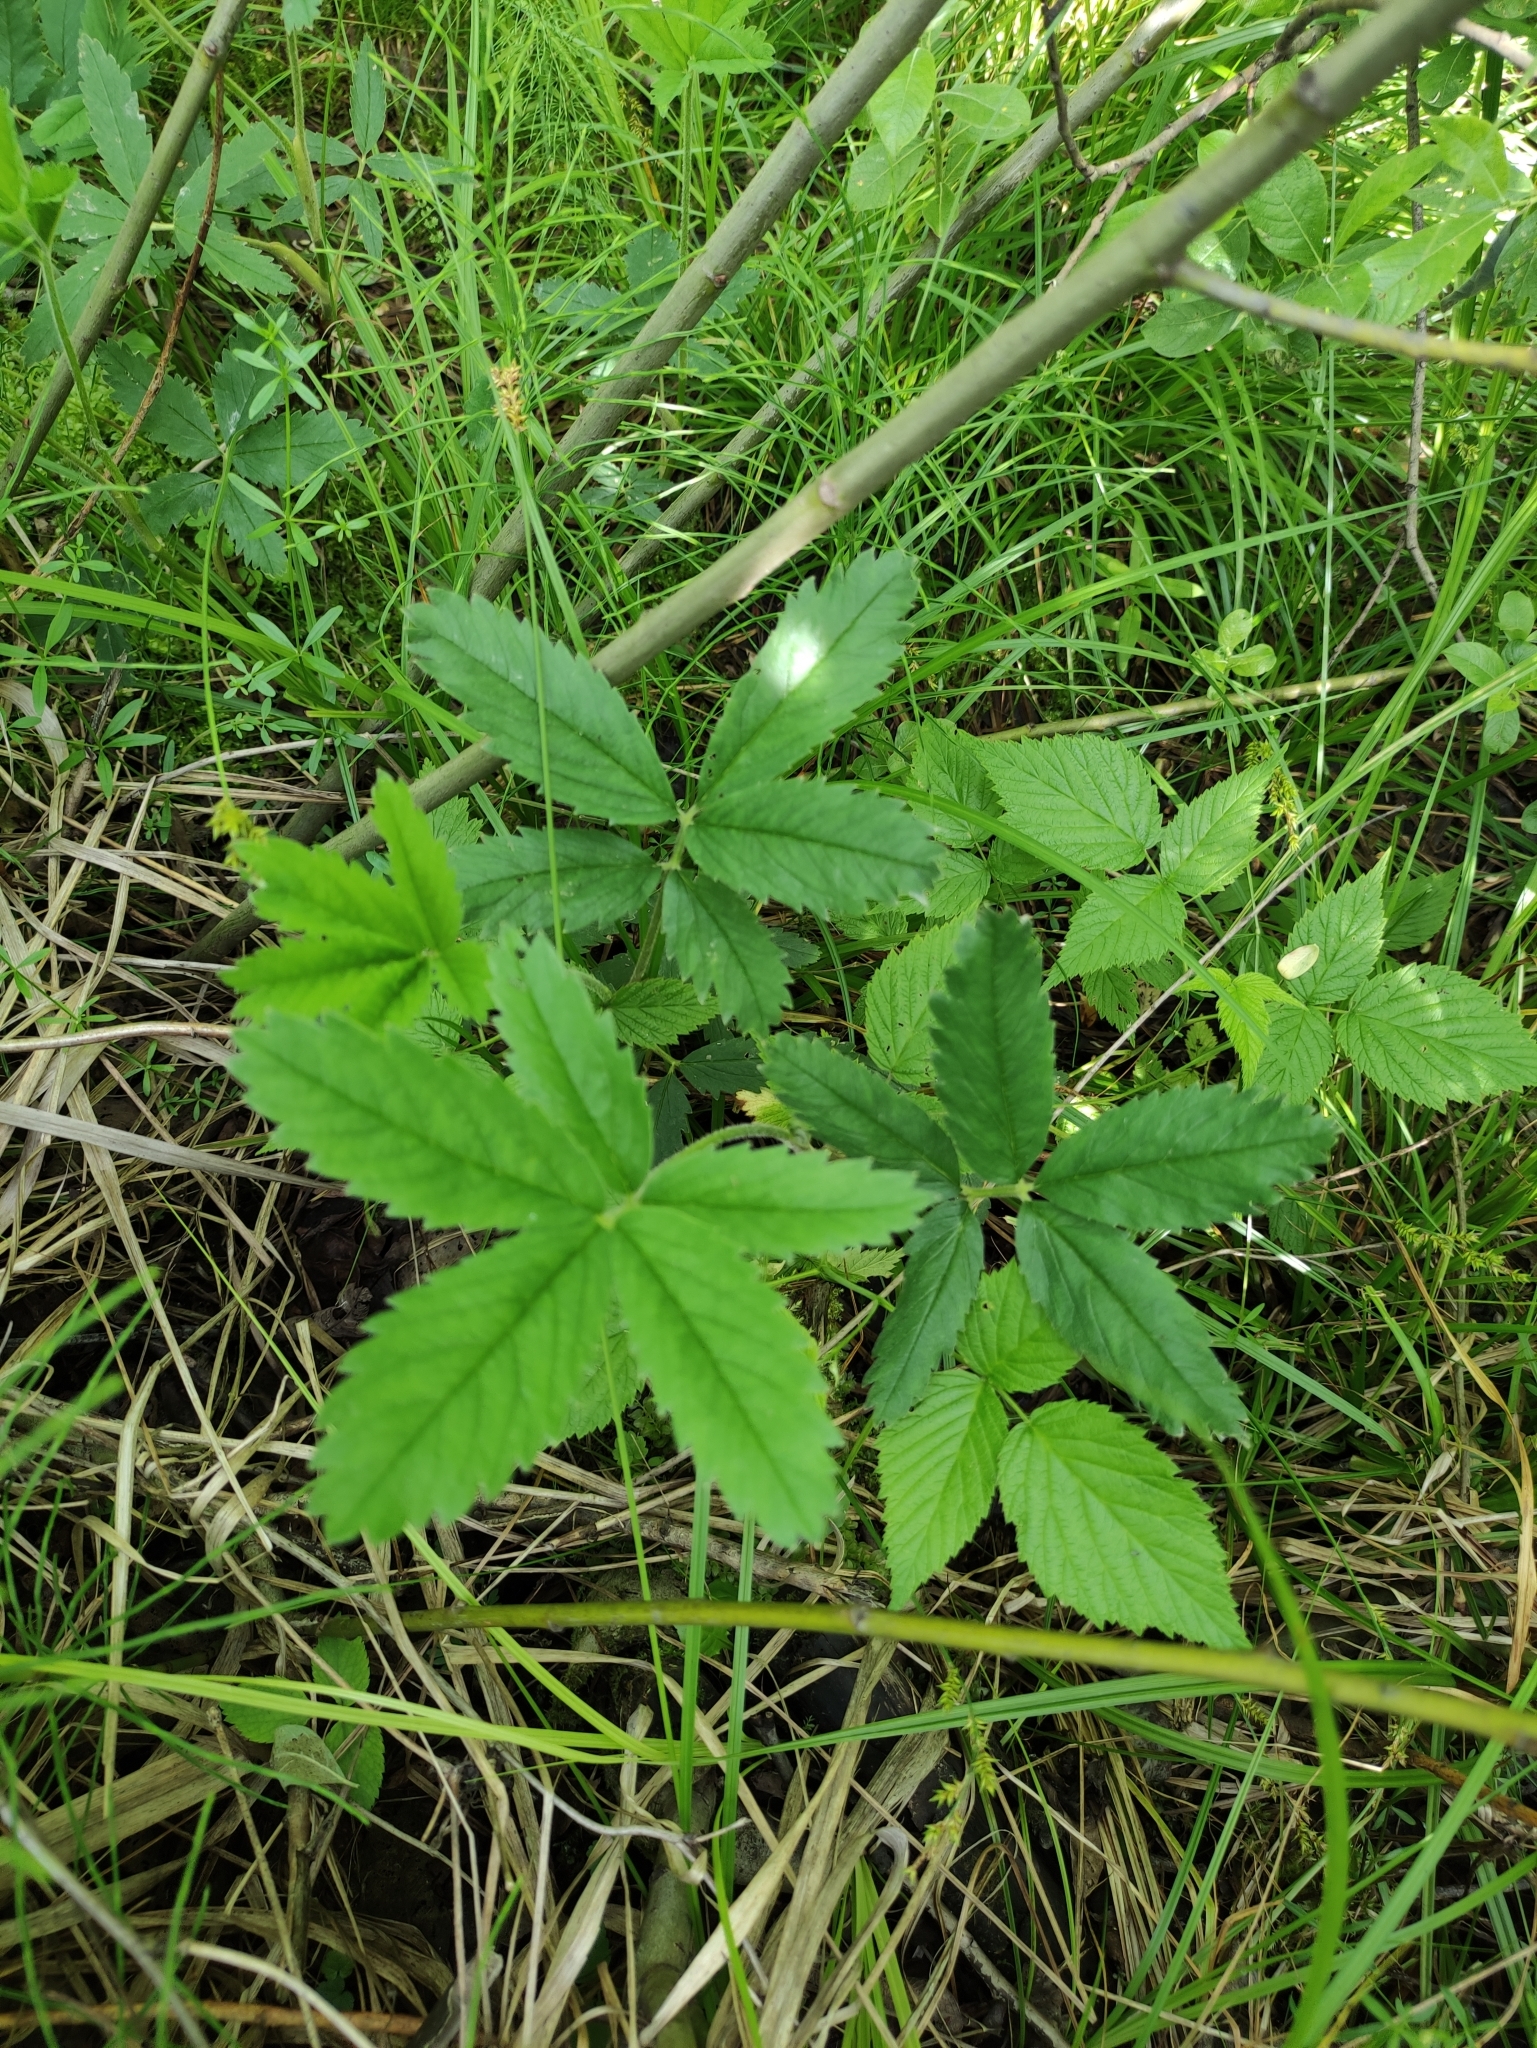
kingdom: Plantae
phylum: Tracheophyta
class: Magnoliopsida
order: Rosales
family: Rosaceae
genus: Comarum
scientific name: Comarum palustre
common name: Marsh cinquefoil
